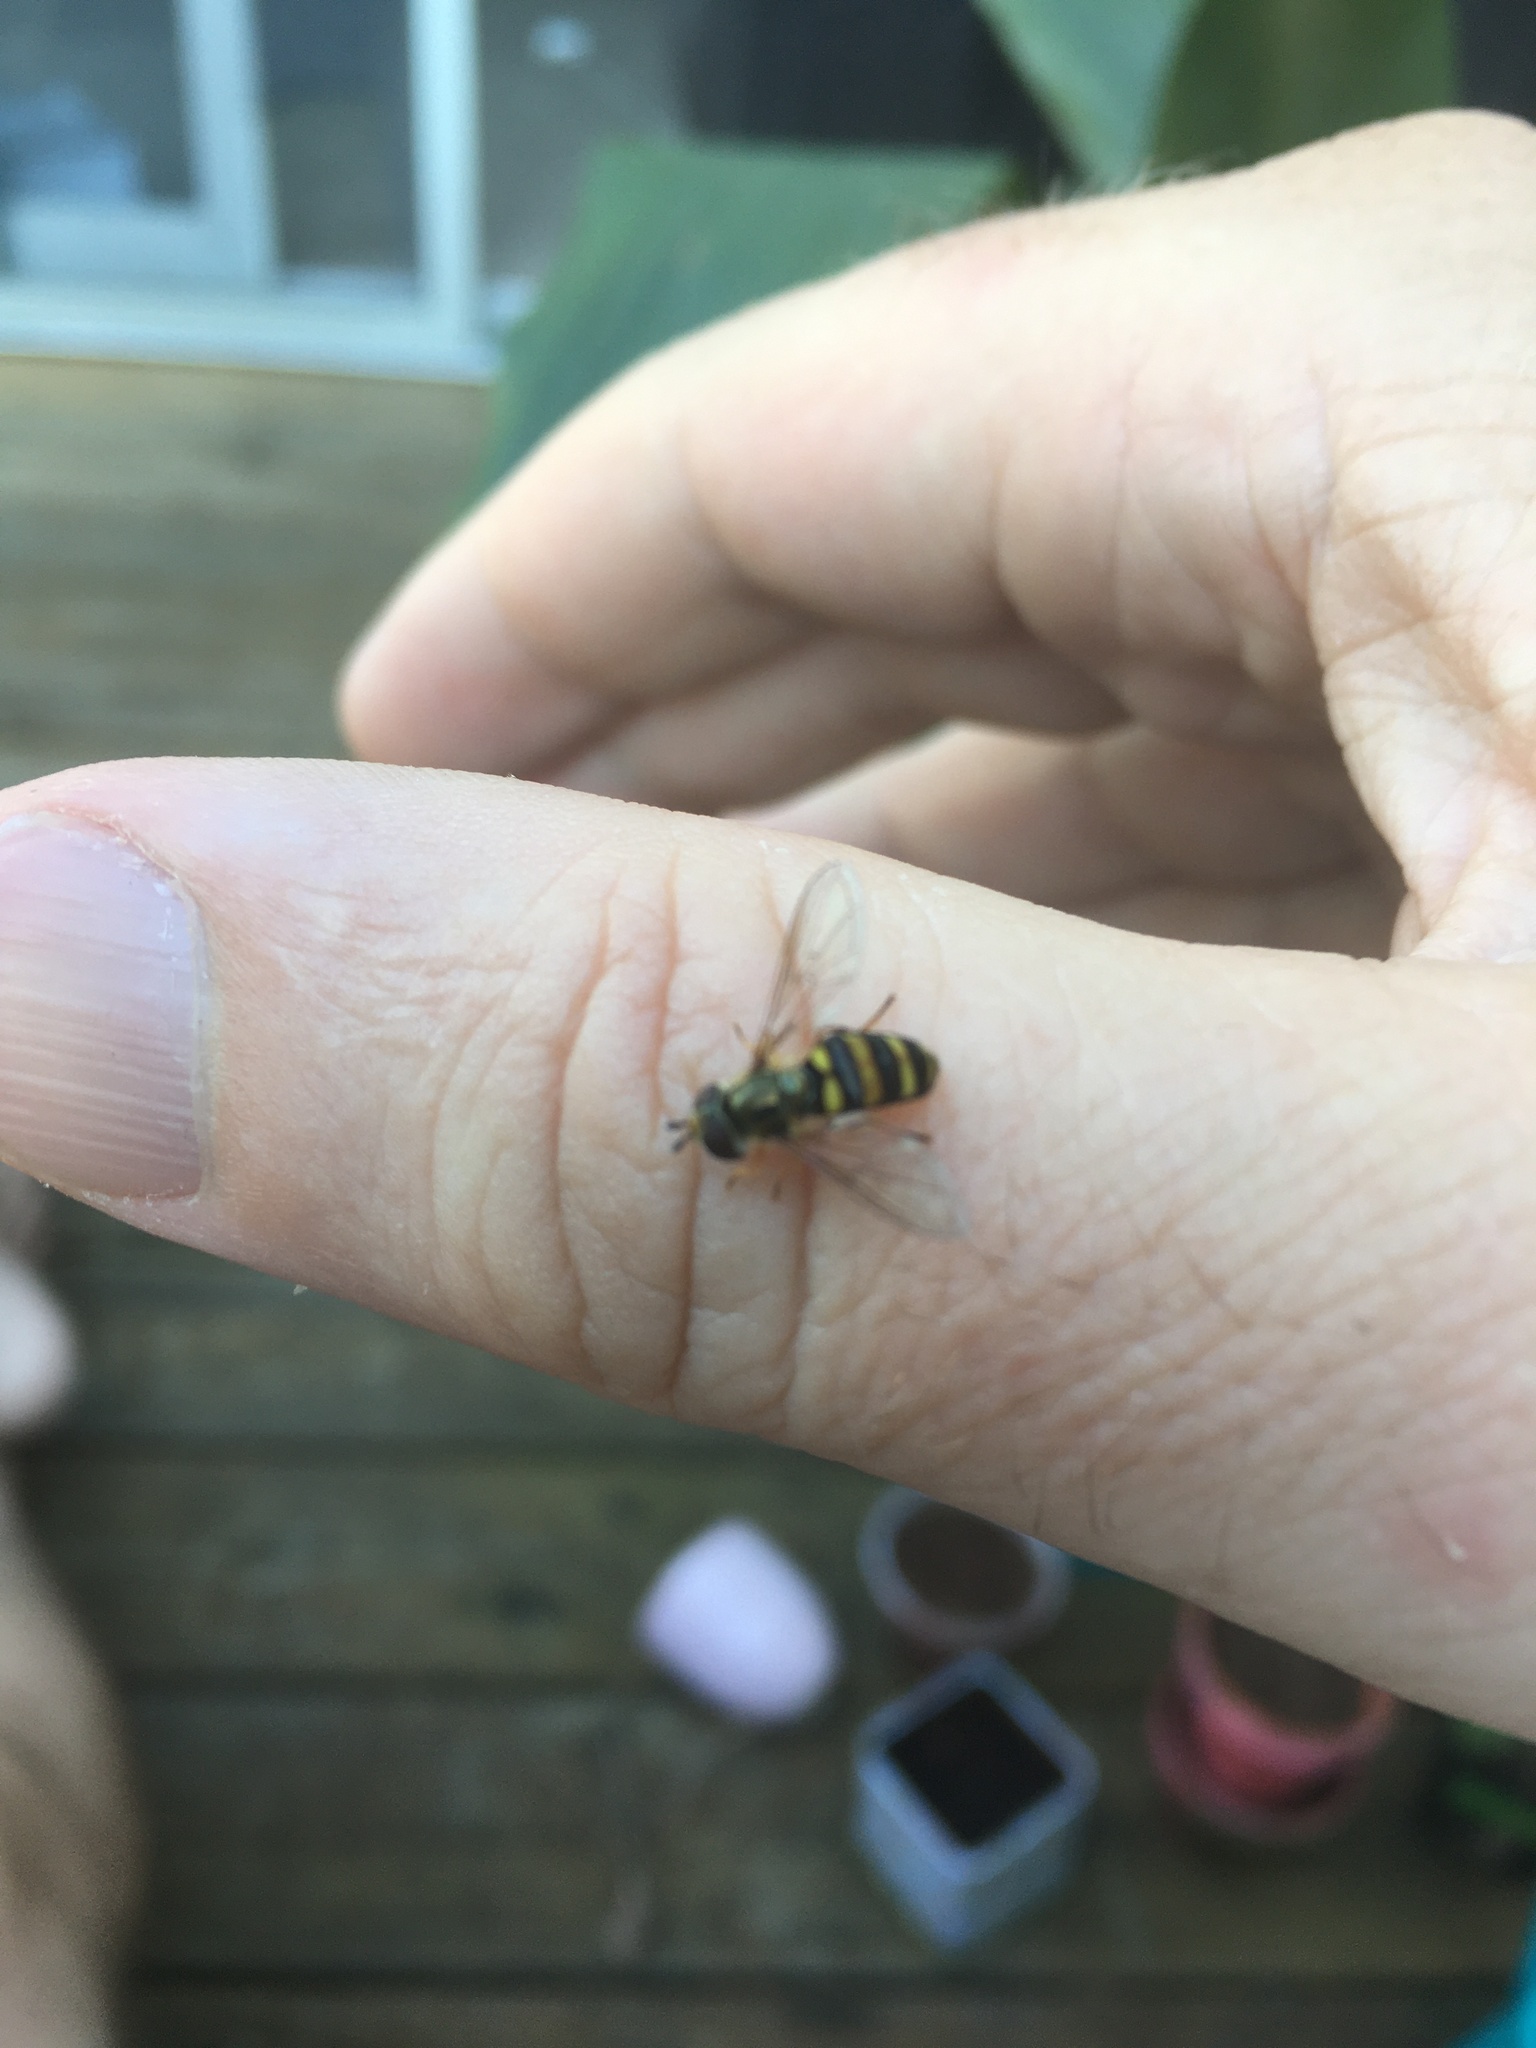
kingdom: Animalia
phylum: Arthropoda
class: Insecta
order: Diptera
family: Syrphidae
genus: Eupeodes
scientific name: Eupeodes
